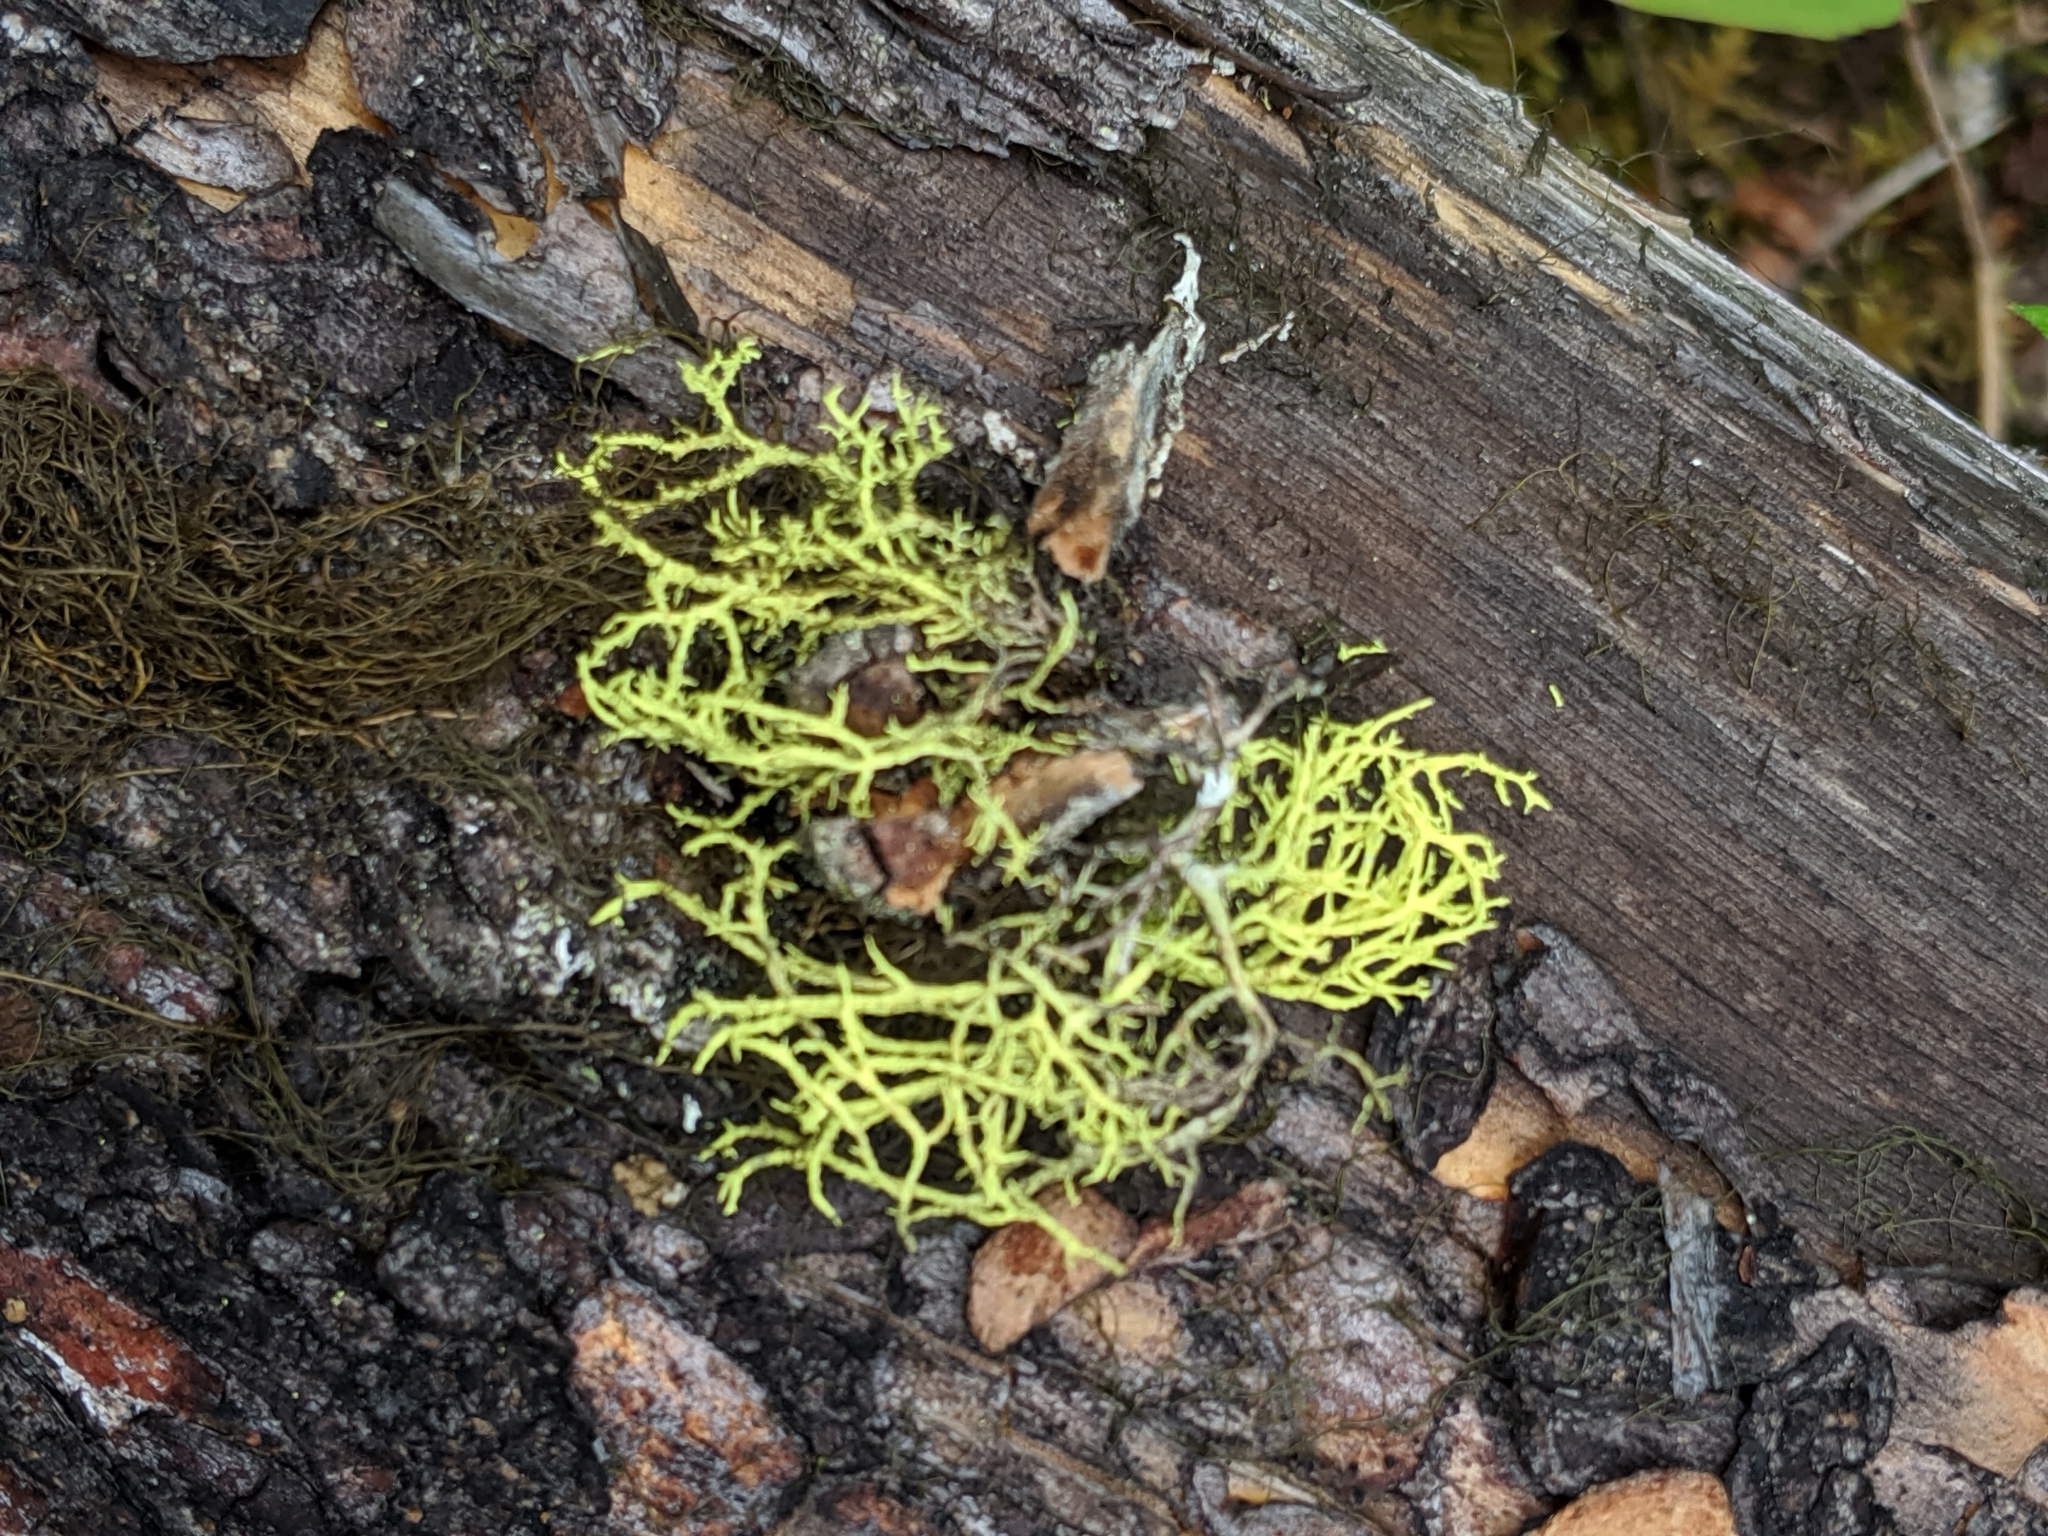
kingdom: Fungi
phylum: Ascomycota
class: Lecanoromycetes
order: Lecanorales
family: Parmeliaceae
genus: Letharia
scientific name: Letharia vulpina
